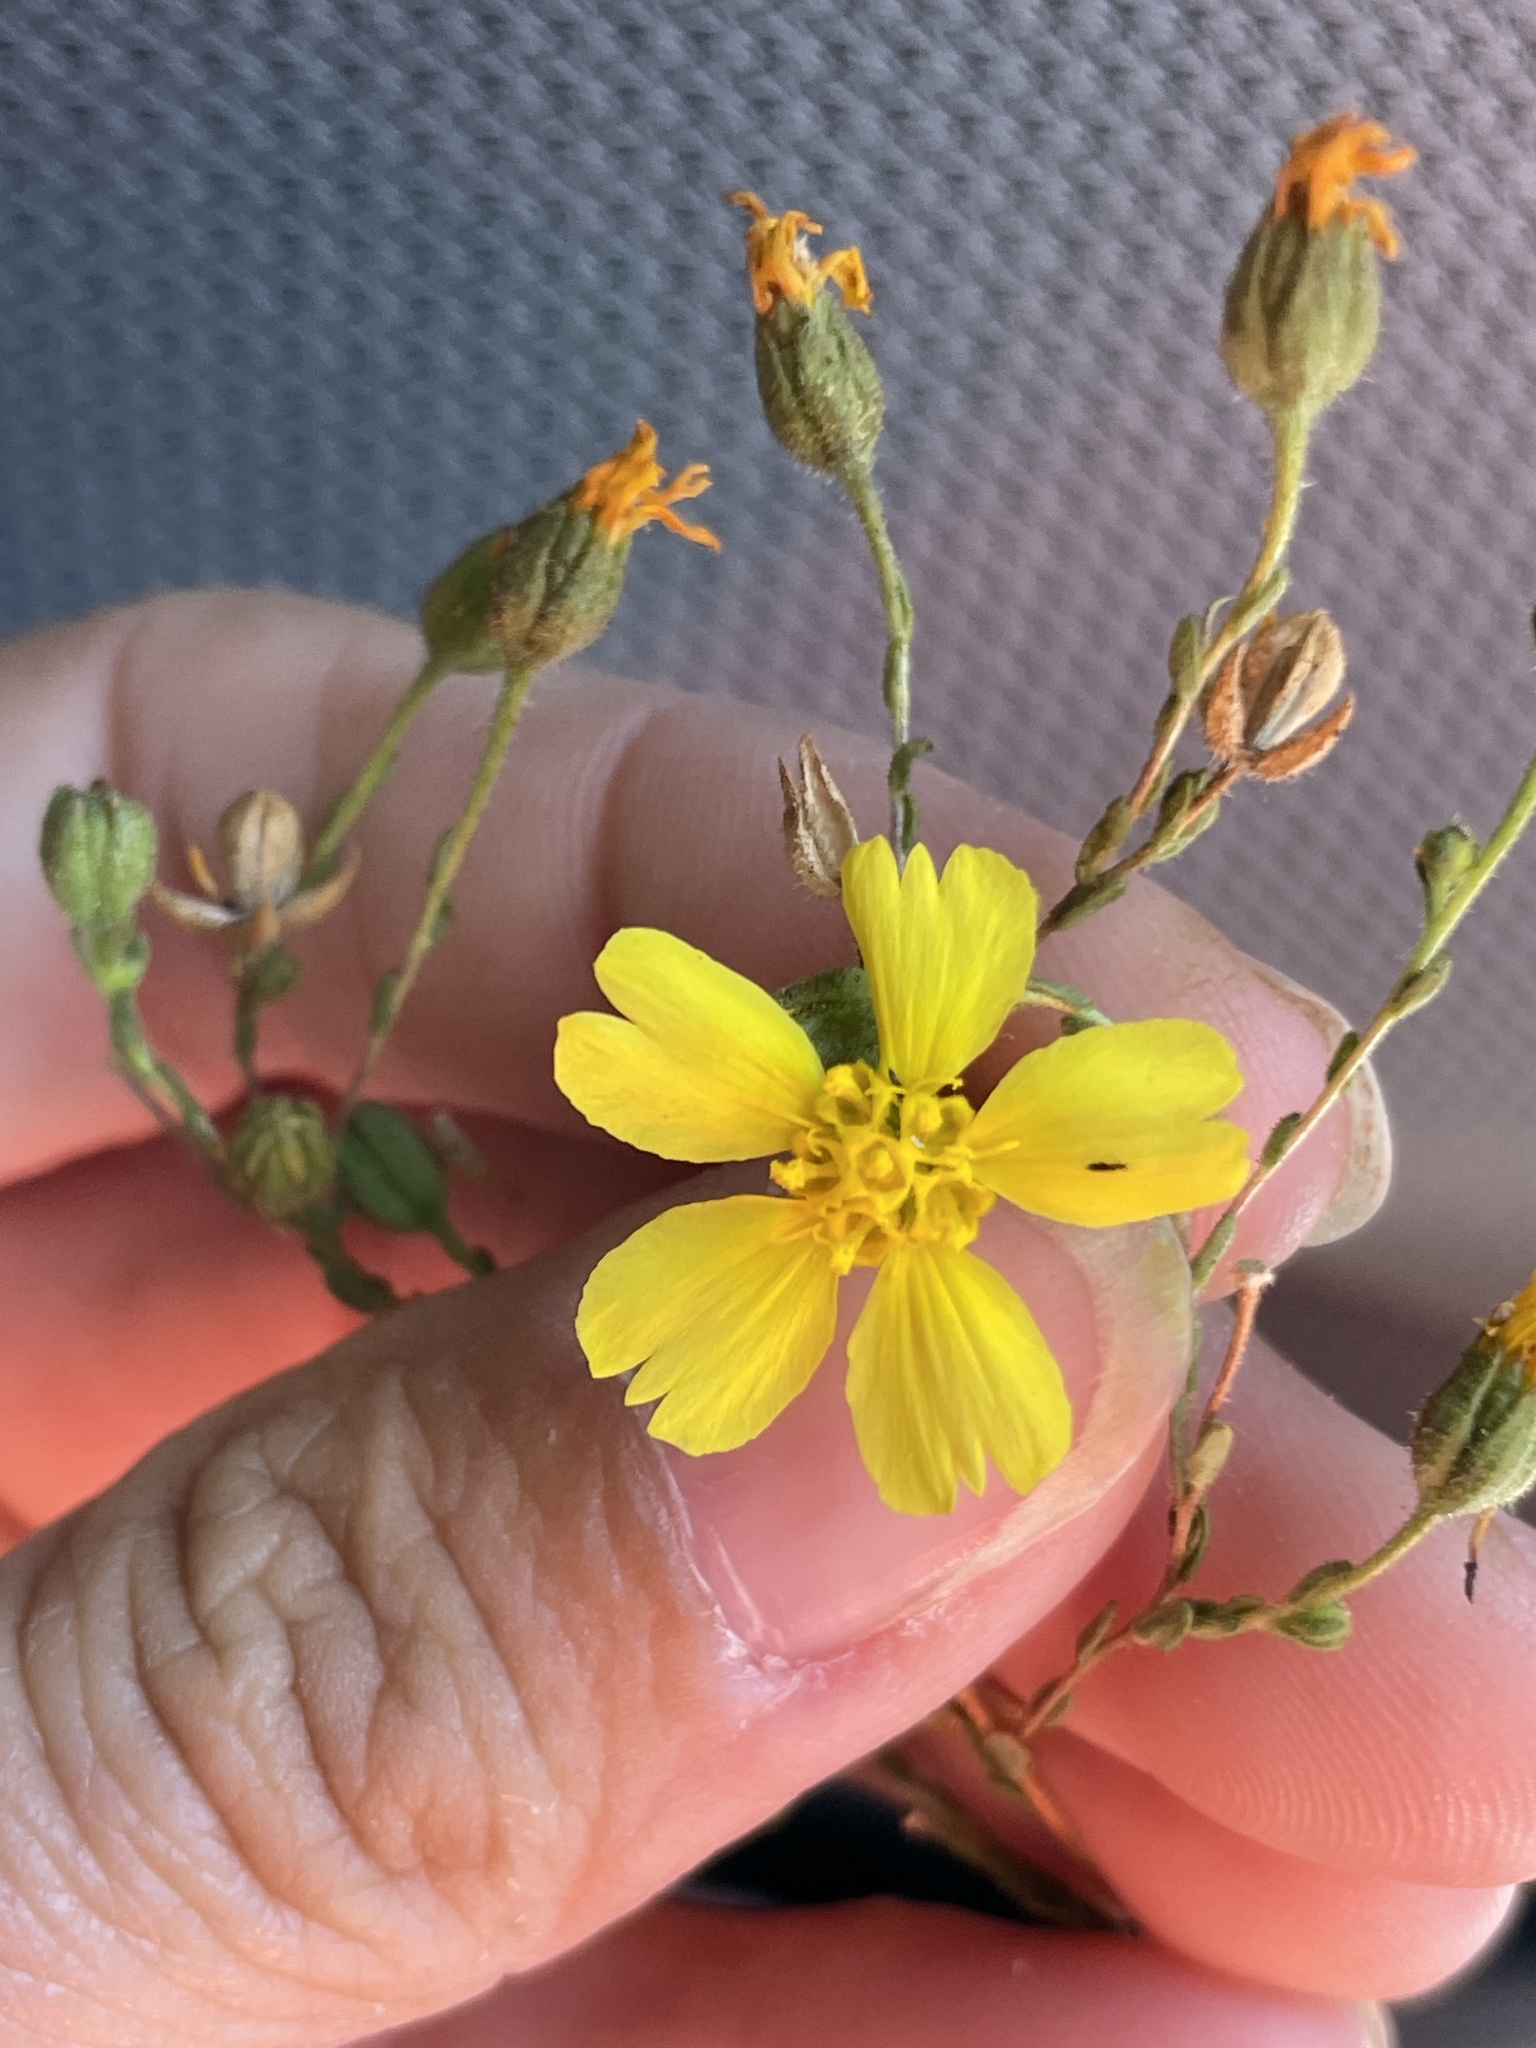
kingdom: Plantae
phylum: Tracheophyta
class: Magnoliopsida
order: Asterales
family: Asteraceae
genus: Deinandra
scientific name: Deinandra kelloggii
